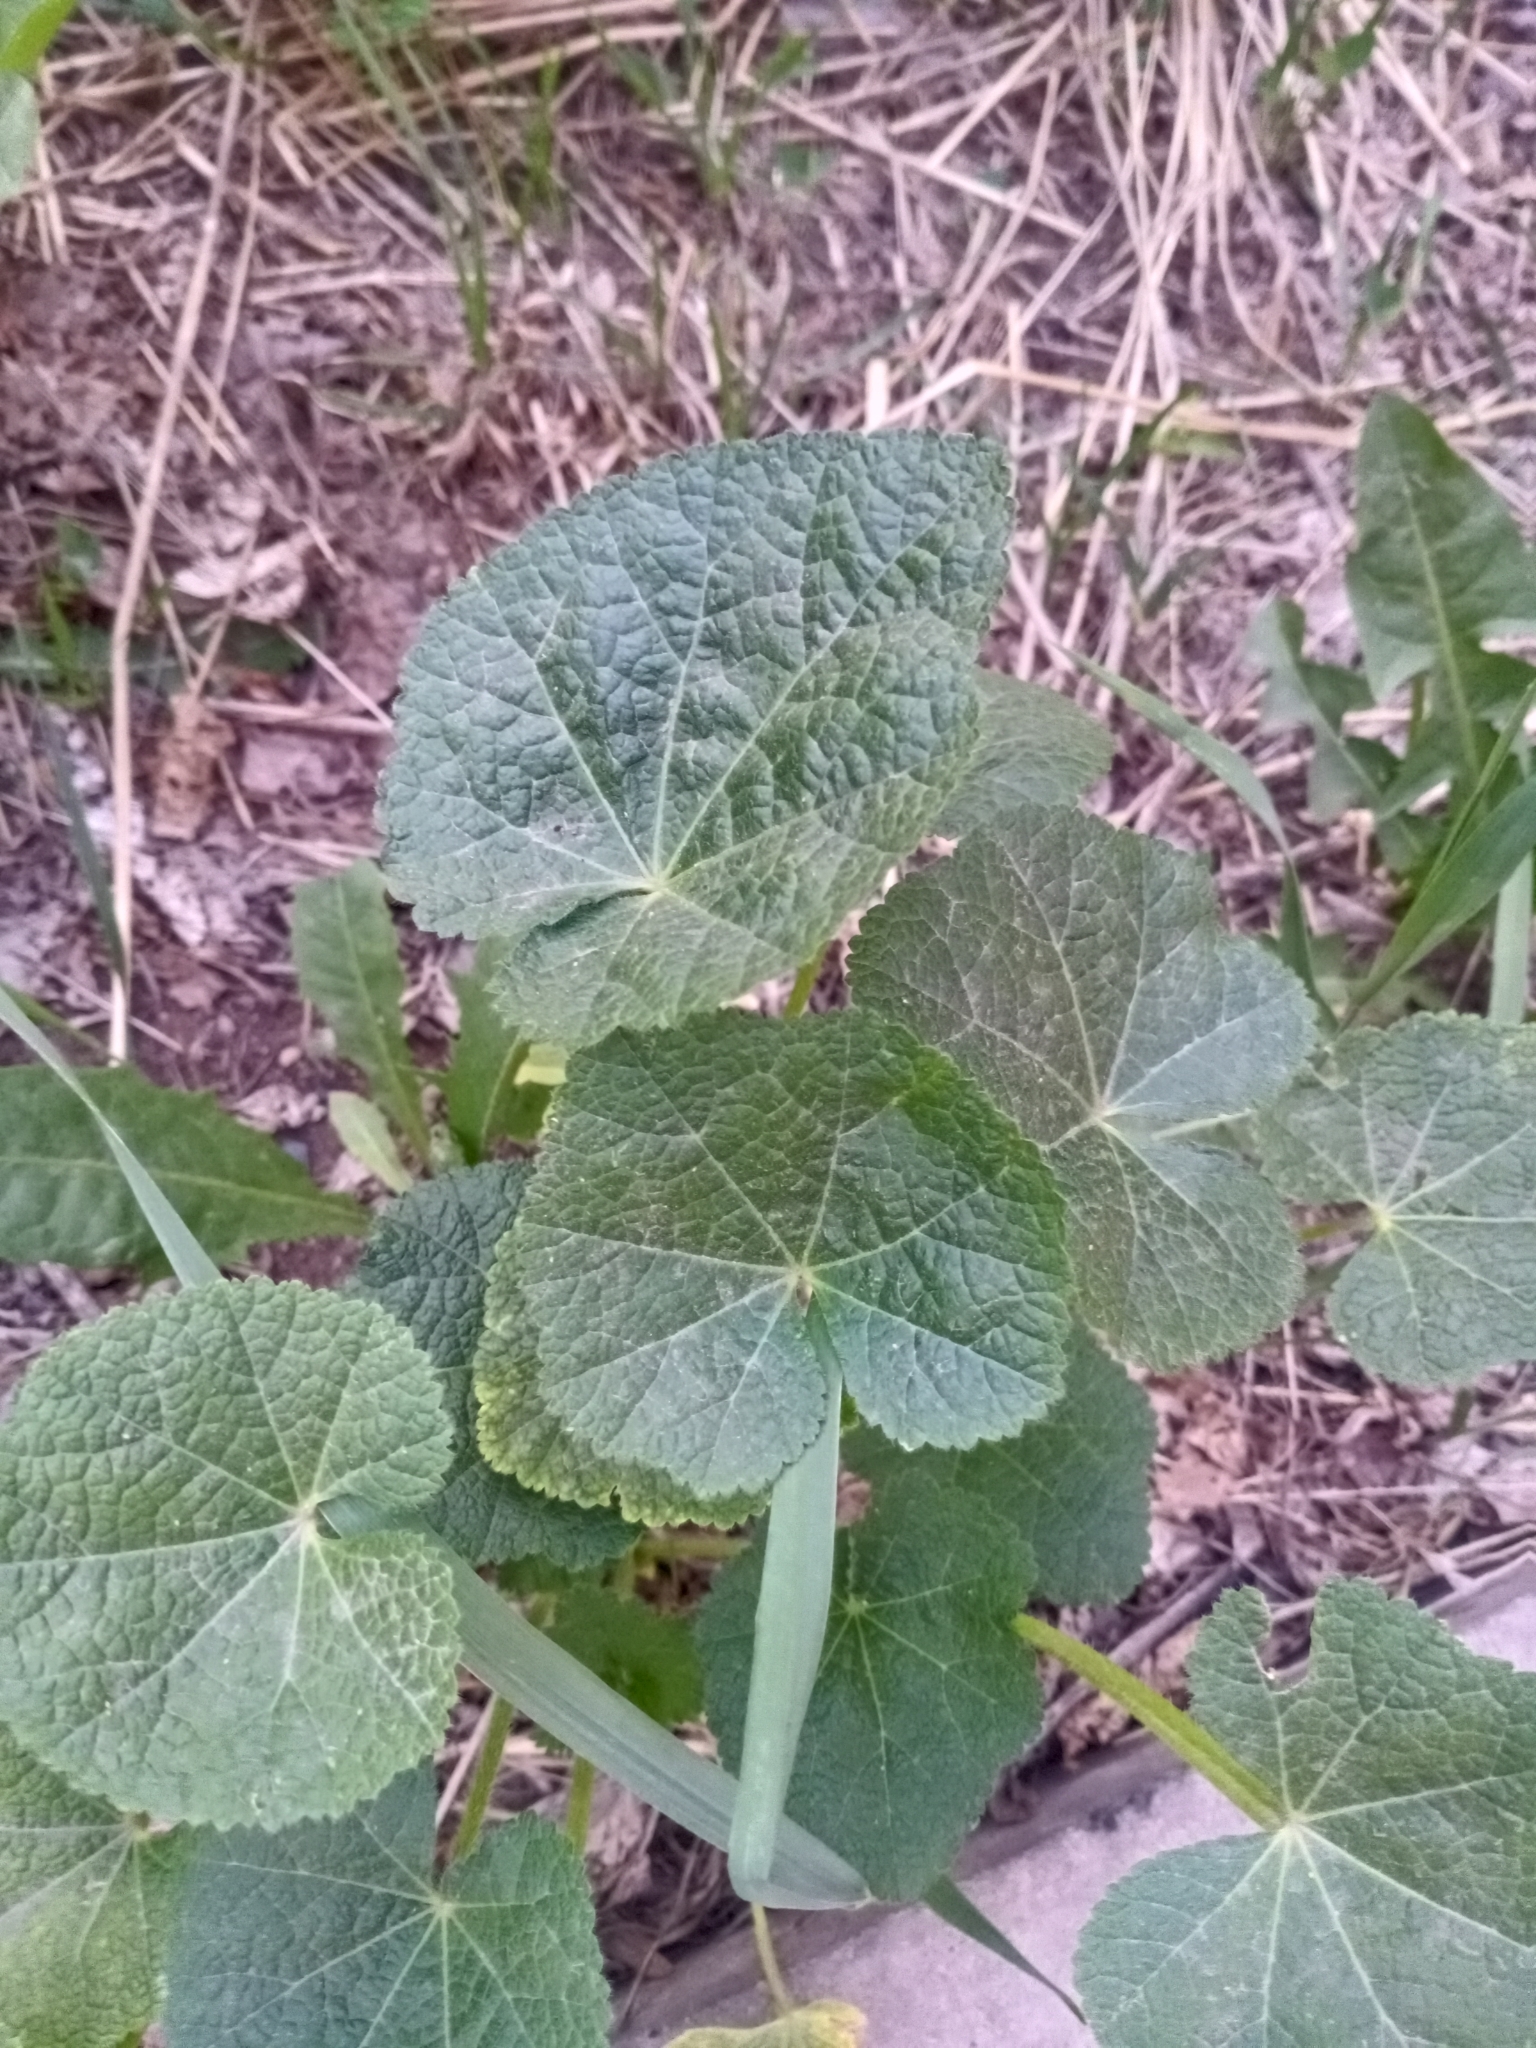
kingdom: Plantae
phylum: Tracheophyta
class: Magnoliopsida
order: Malvales
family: Malvaceae
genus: Alcea
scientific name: Alcea rosea
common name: Hollyhock
